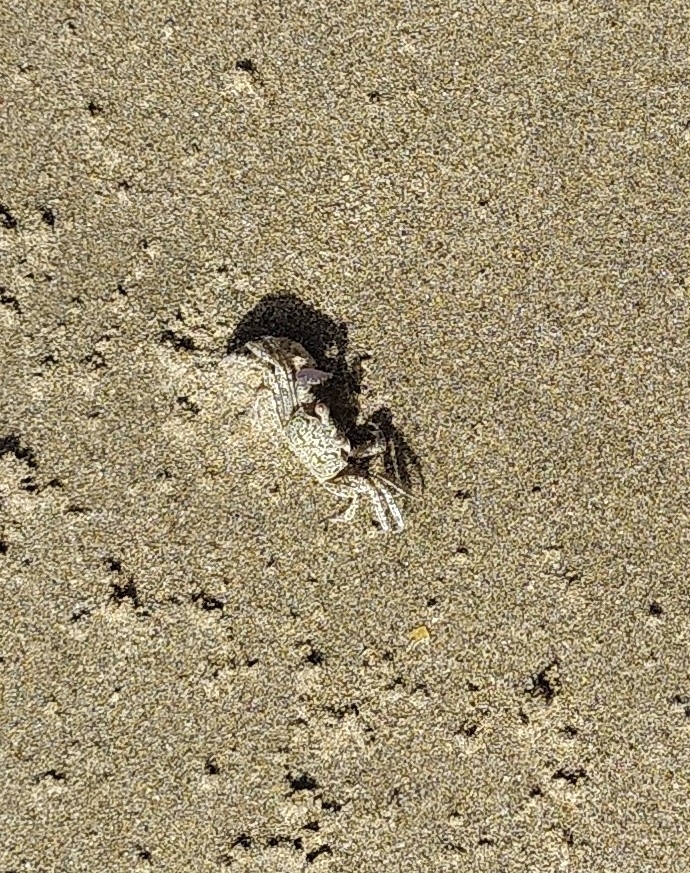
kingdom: Animalia
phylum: Arthropoda
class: Malacostraca
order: Decapoda
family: Ocypodidae
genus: Ocypode
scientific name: Ocypode quadrata
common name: Ghost crab
